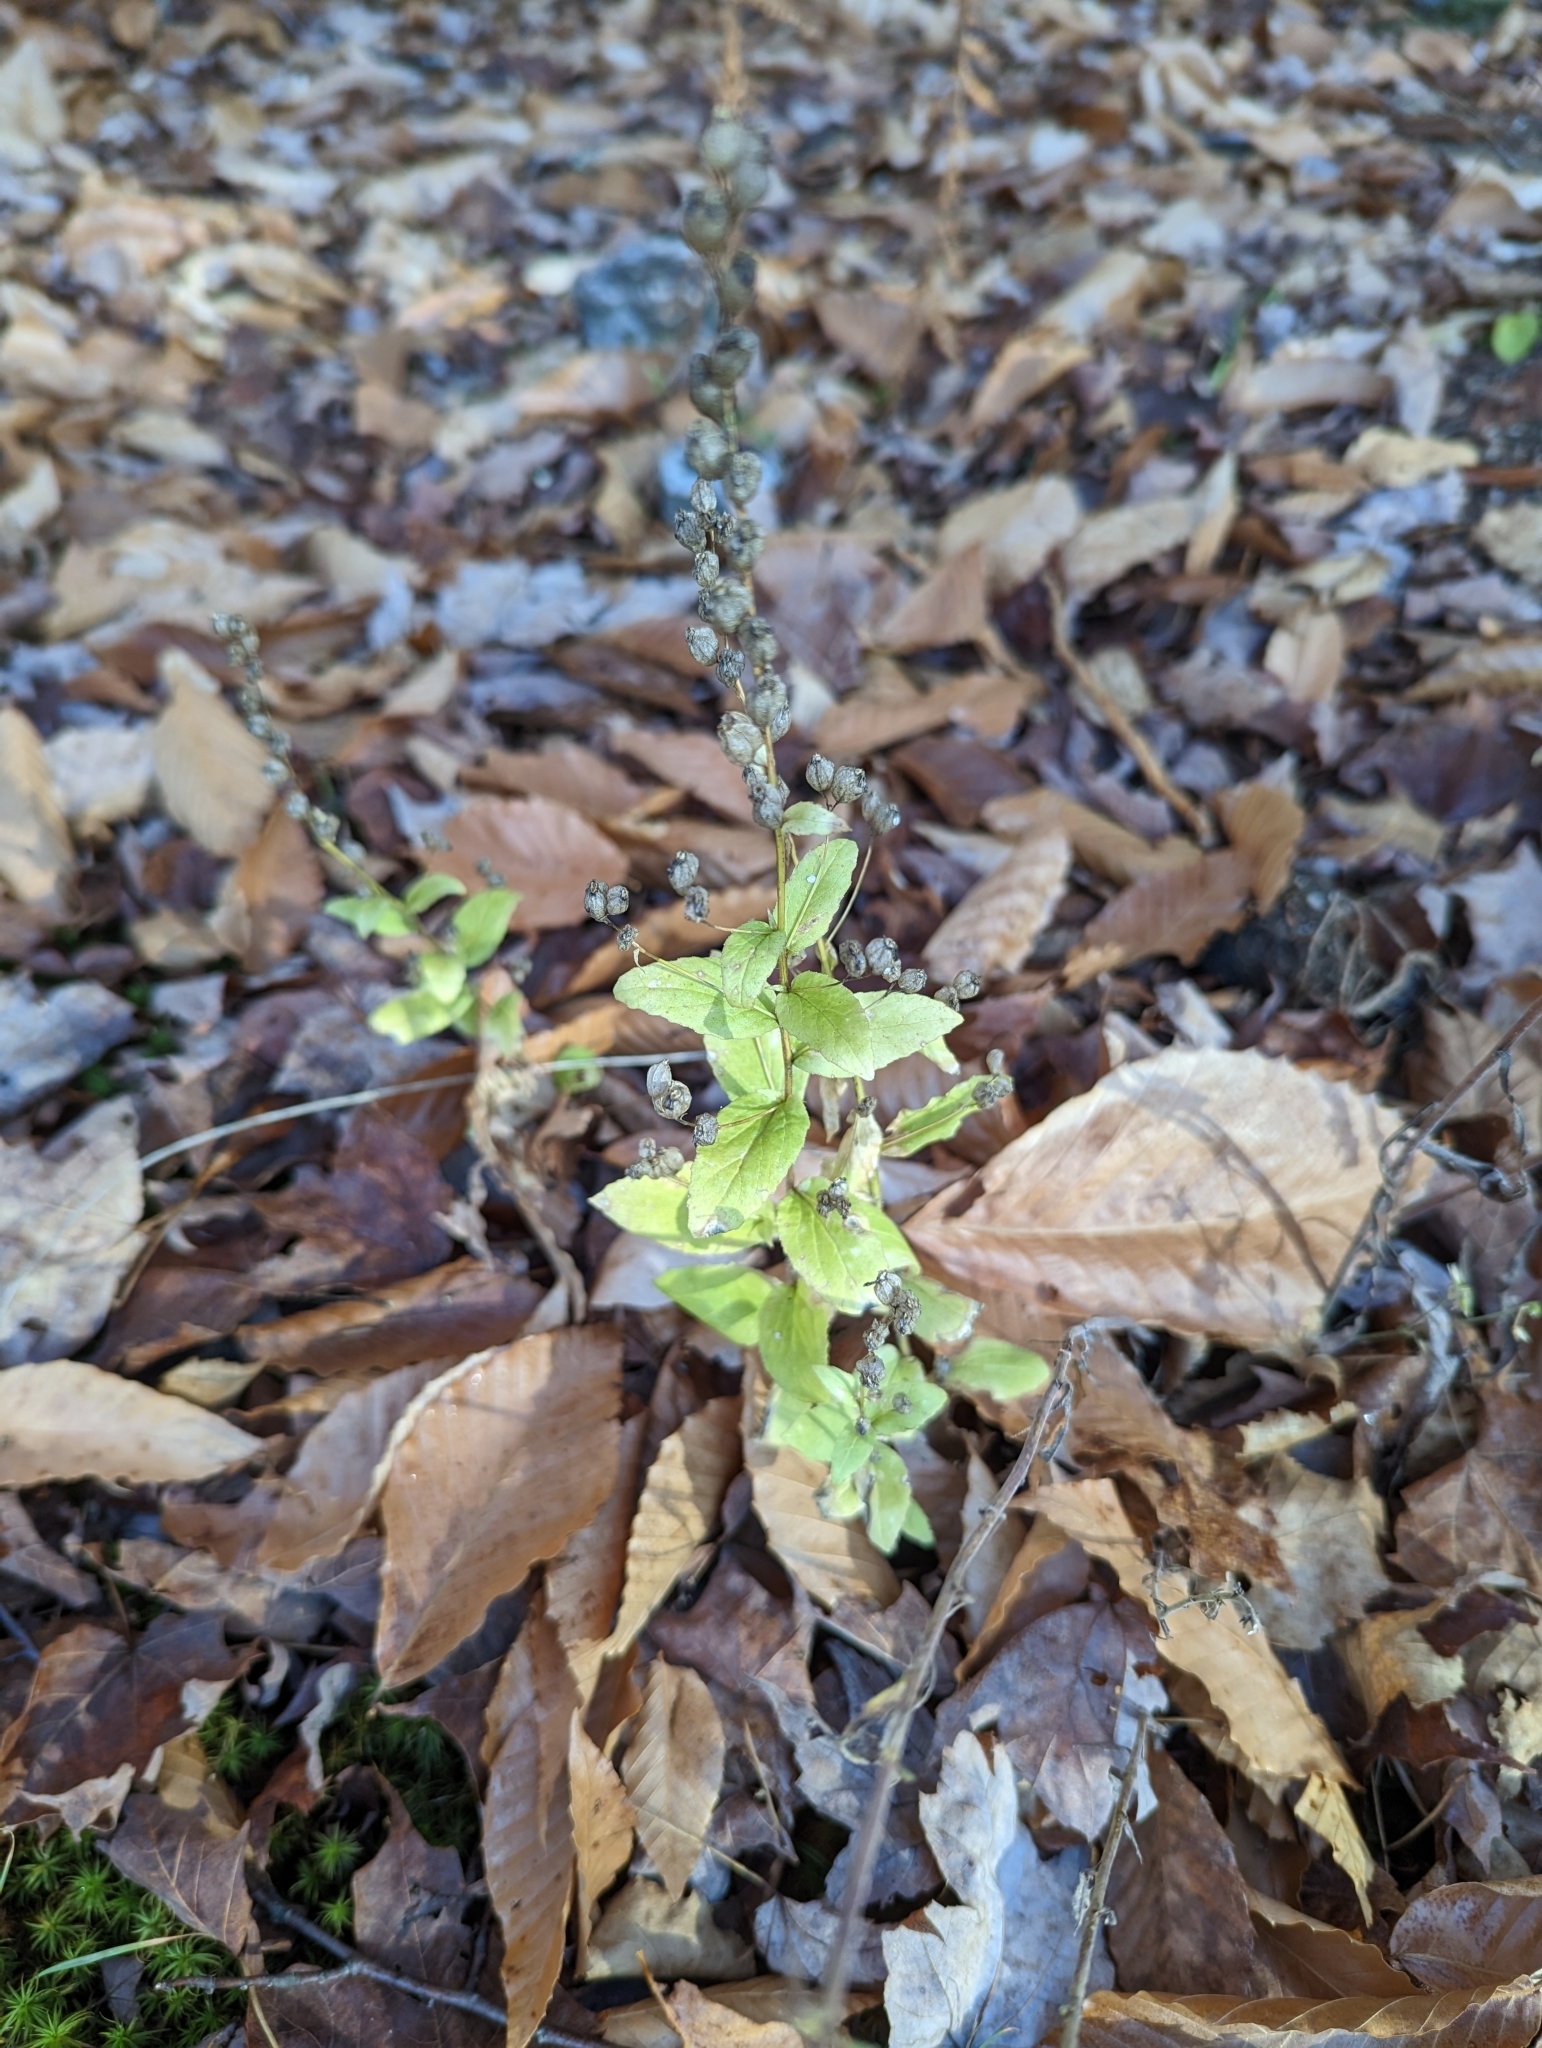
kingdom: Plantae
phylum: Tracheophyta
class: Magnoliopsida
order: Asterales
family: Campanulaceae
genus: Lobelia
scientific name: Lobelia inflata
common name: Indian tobacco
